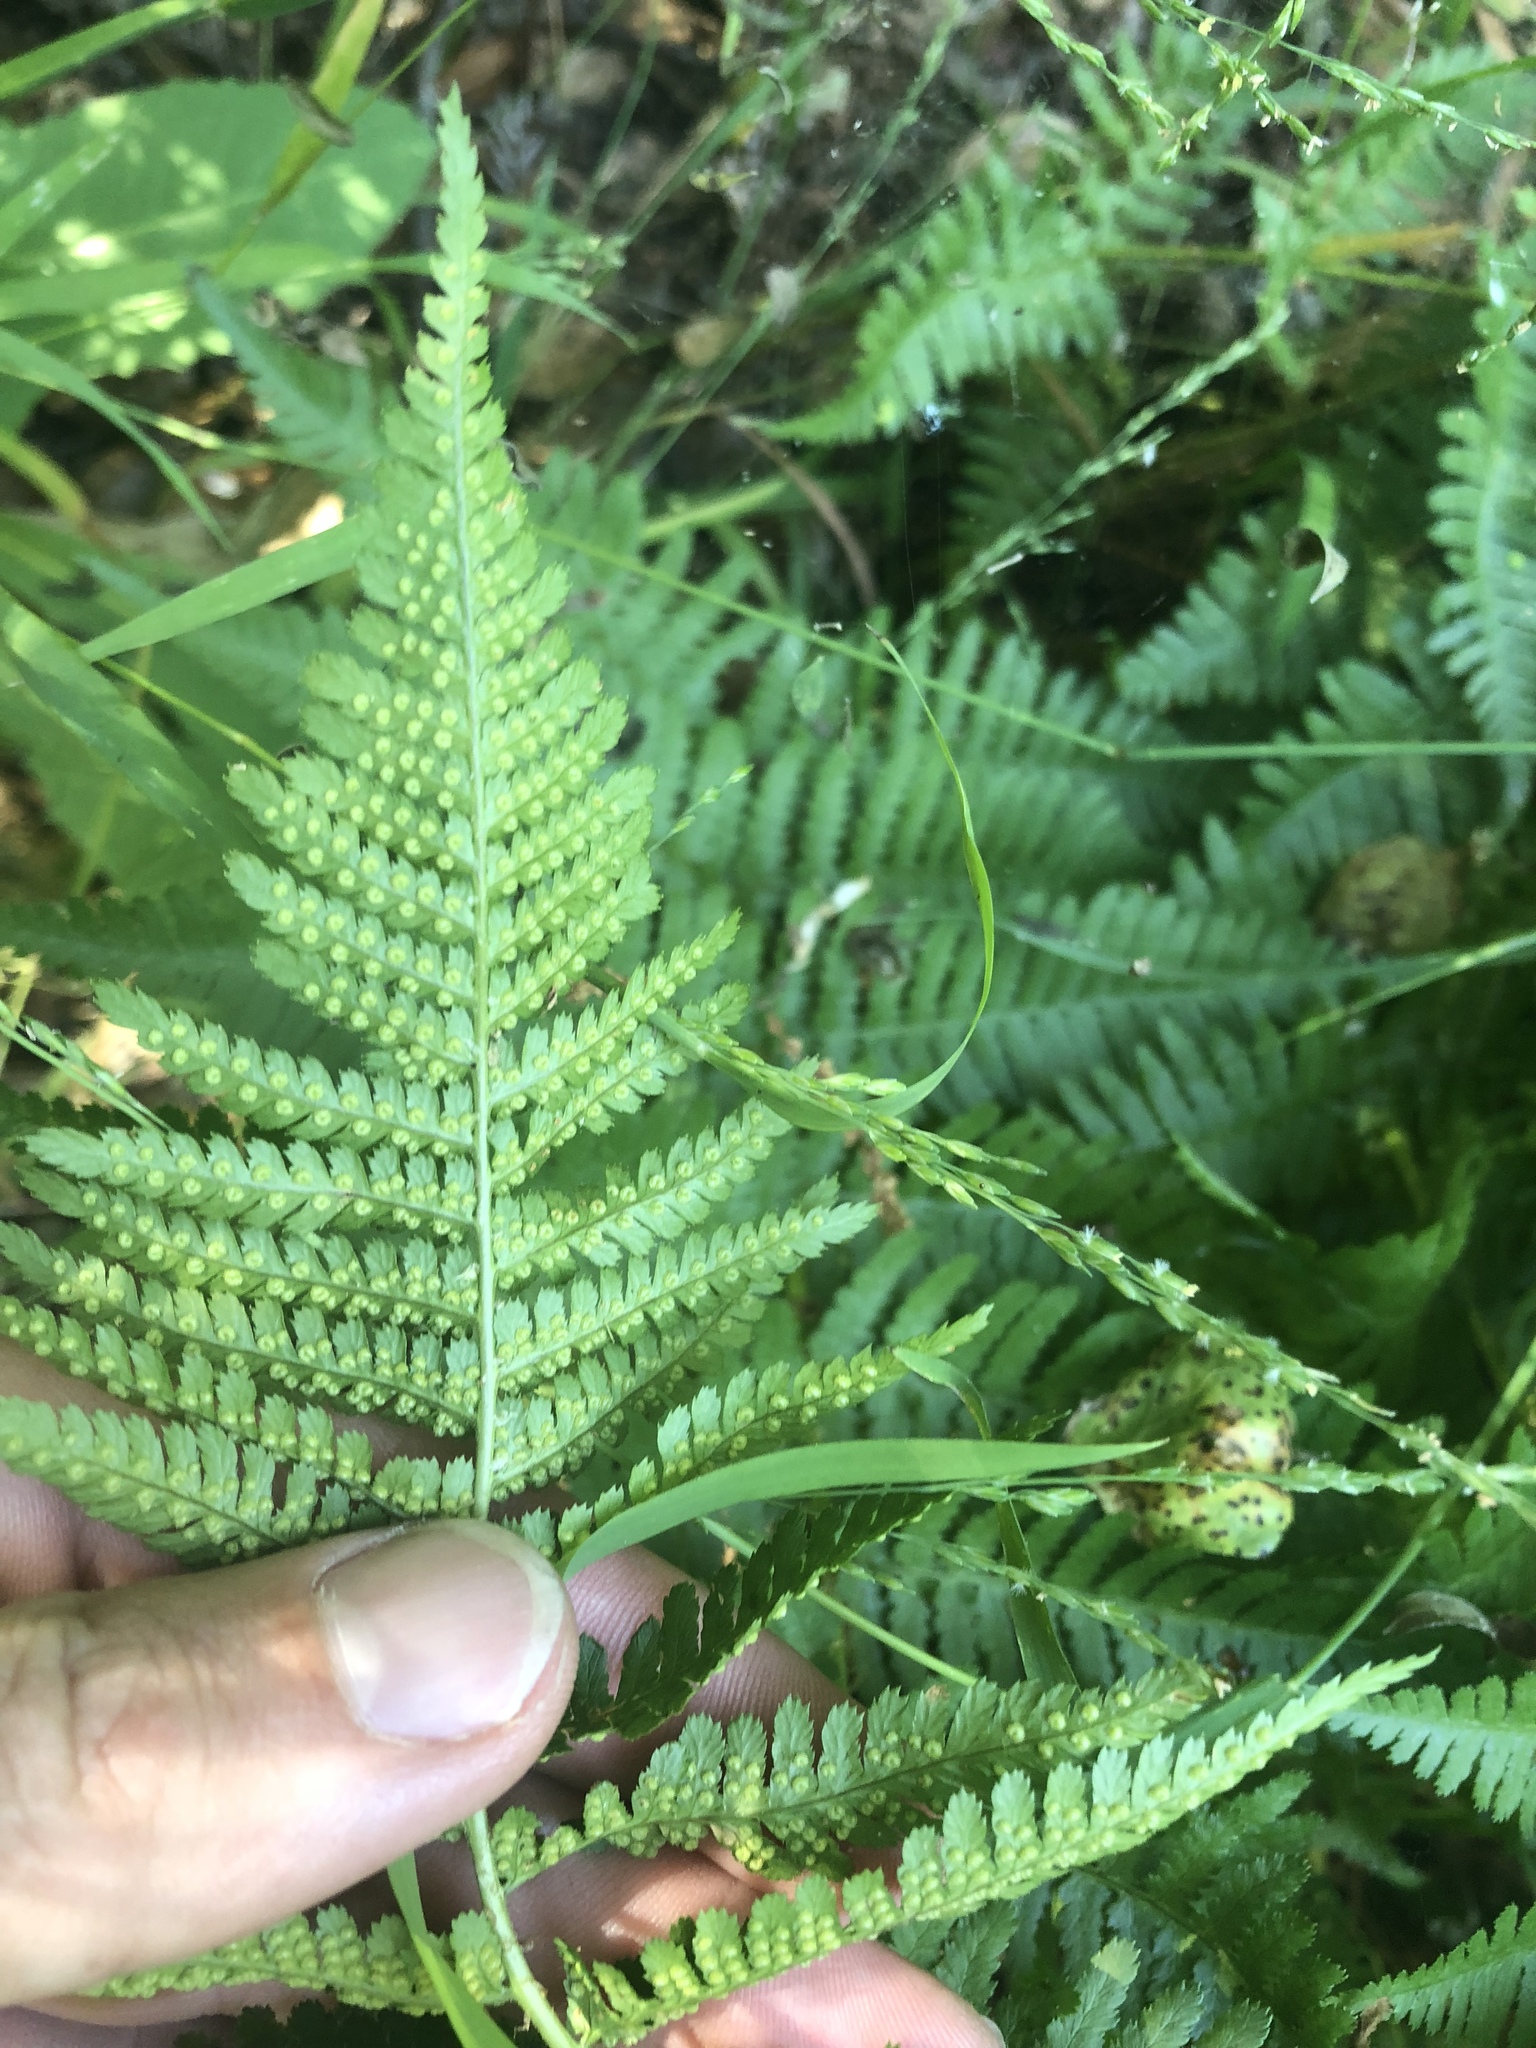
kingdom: Plantae
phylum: Tracheophyta
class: Polypodiopsida
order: Polypodiales
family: Dryopteridaceae
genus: Dryopteris
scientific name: Dryopteris arguta
